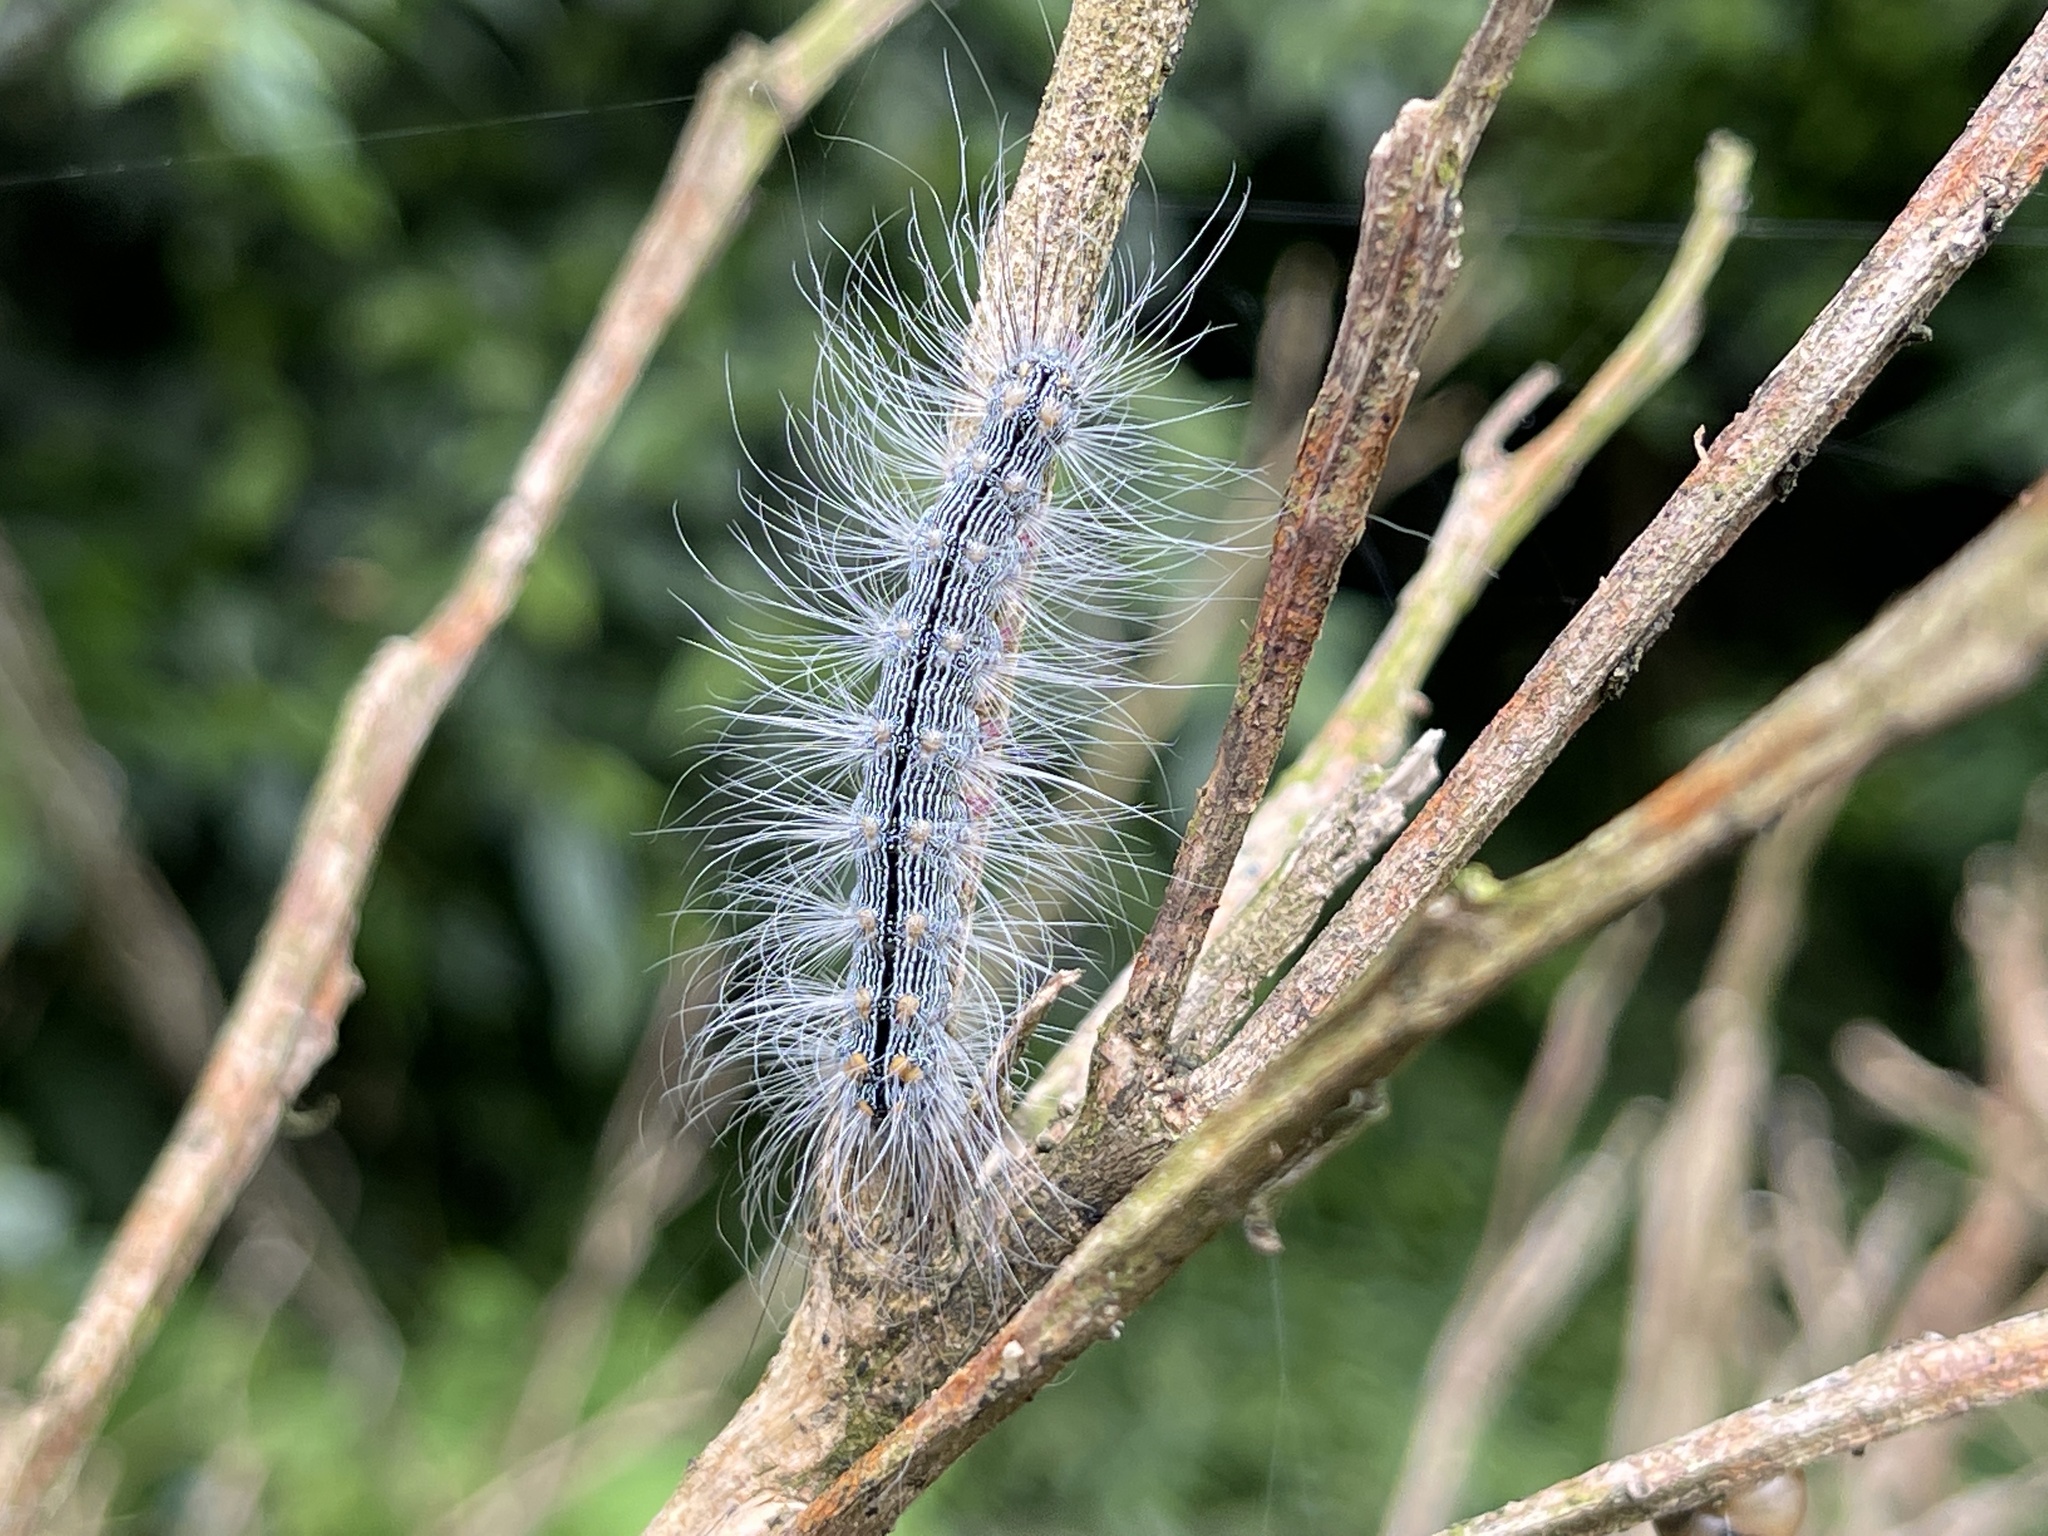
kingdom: Animalia
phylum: Arthropoda
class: Insecta
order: Lepidoptera
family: Erebidae
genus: Chrysaeglia
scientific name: Chrysaeglia magnifica
